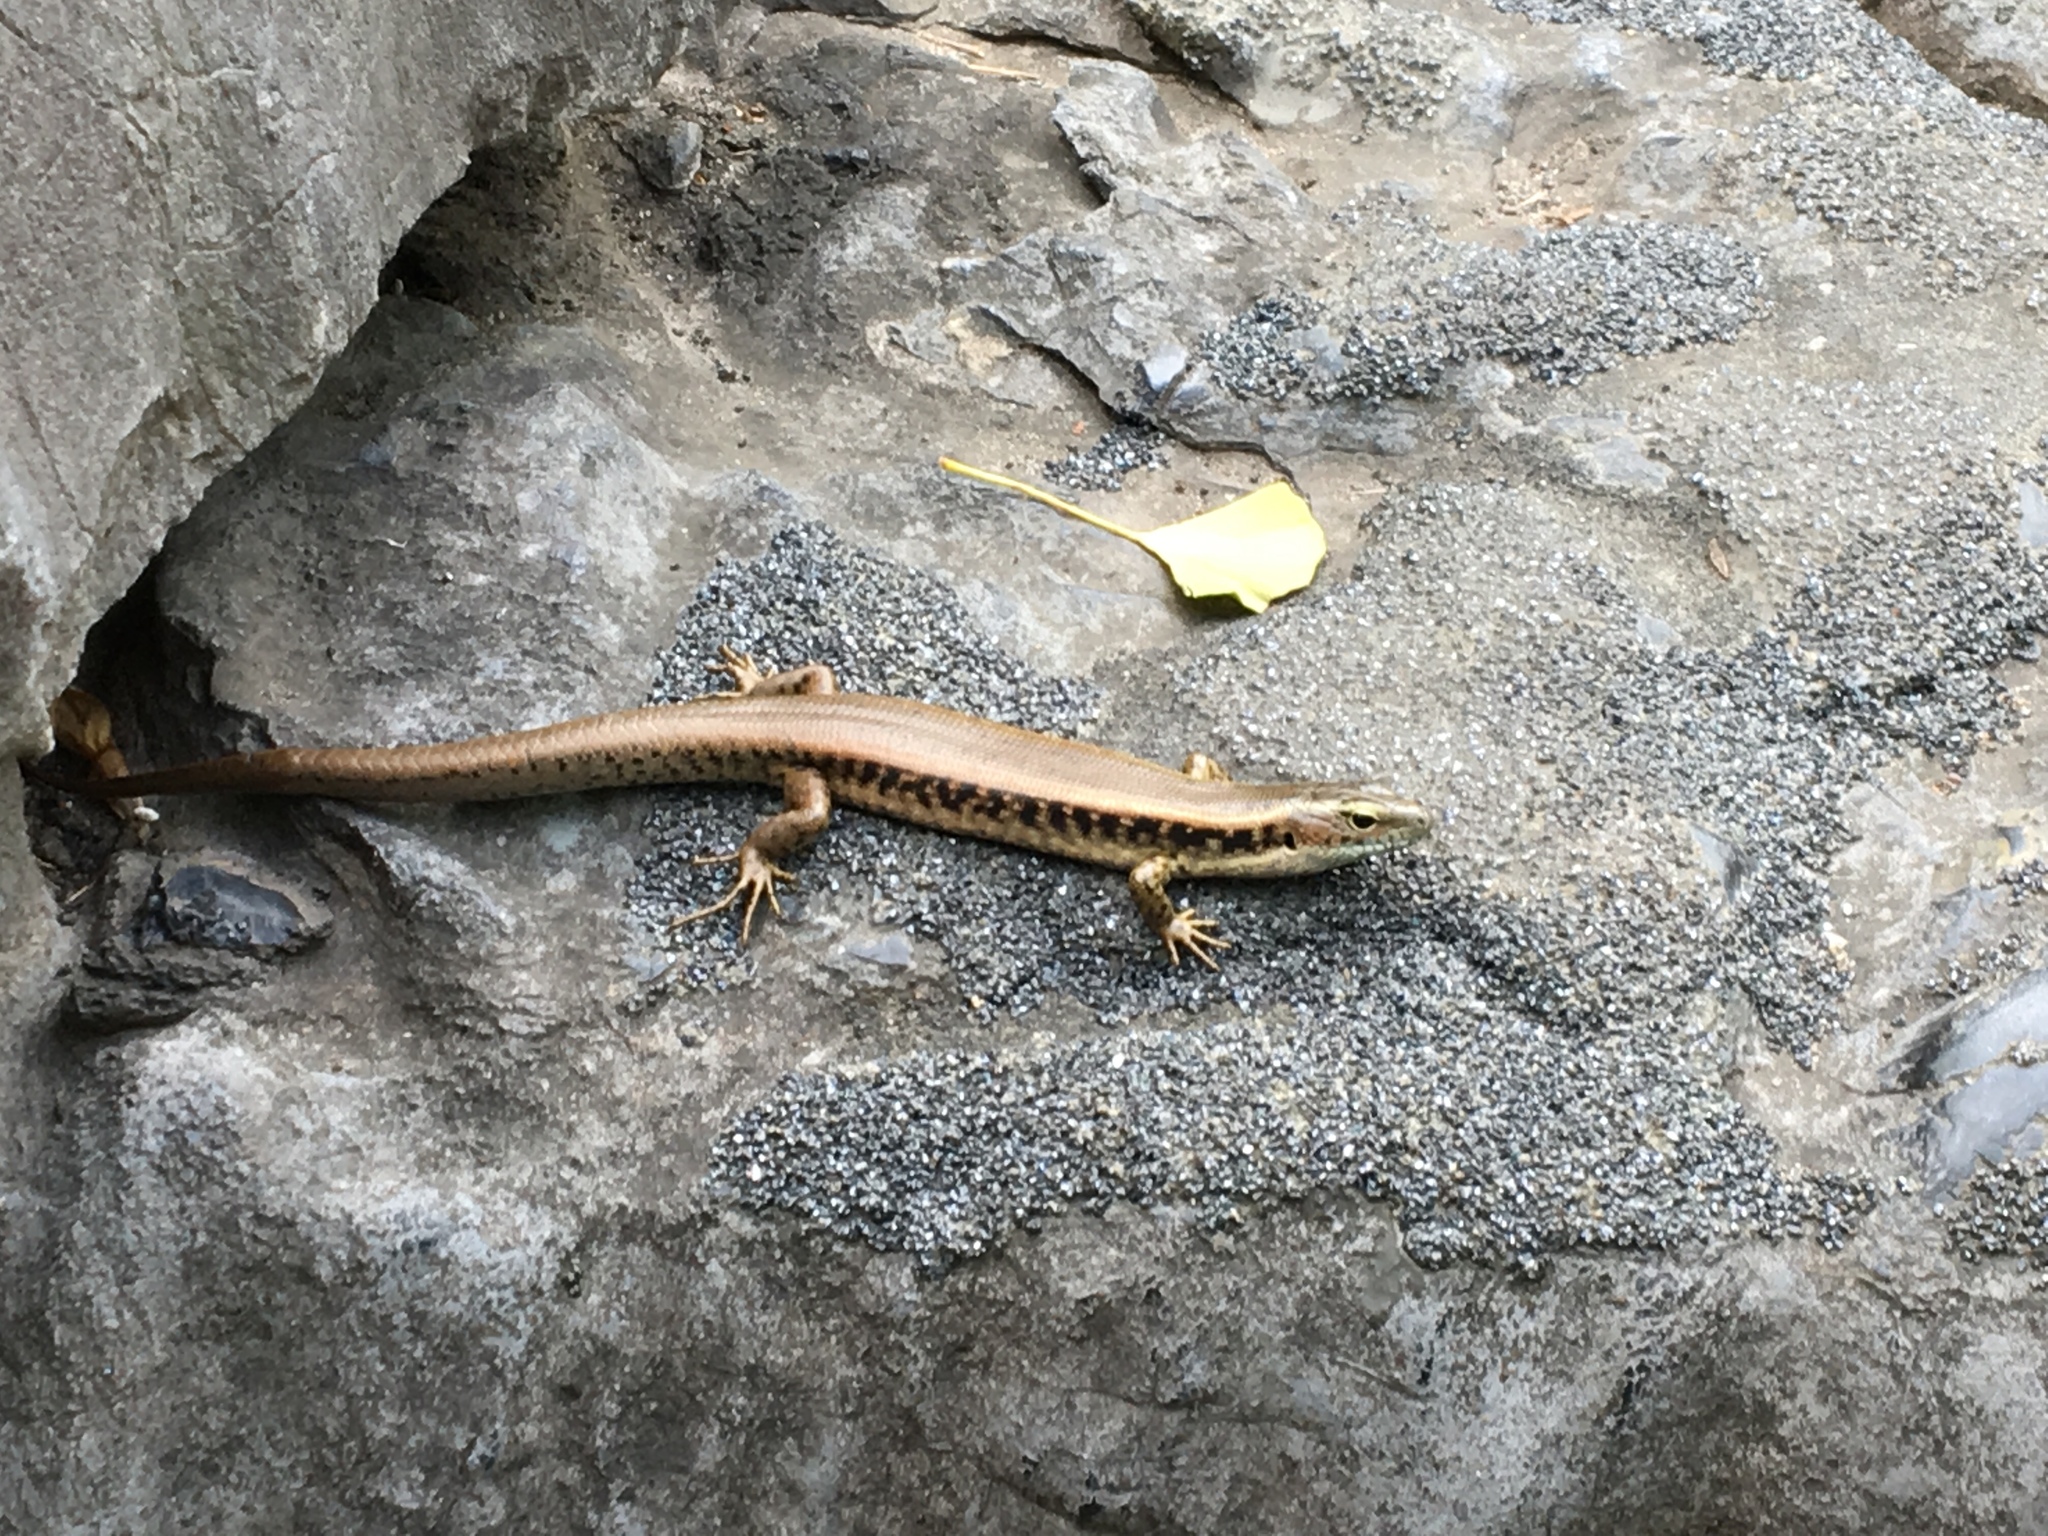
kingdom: Animalia
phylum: Chordata
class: Squamata
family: Scincidae
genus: Eulamprus
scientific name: Eulamprus quoyii
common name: Eastern water skink
